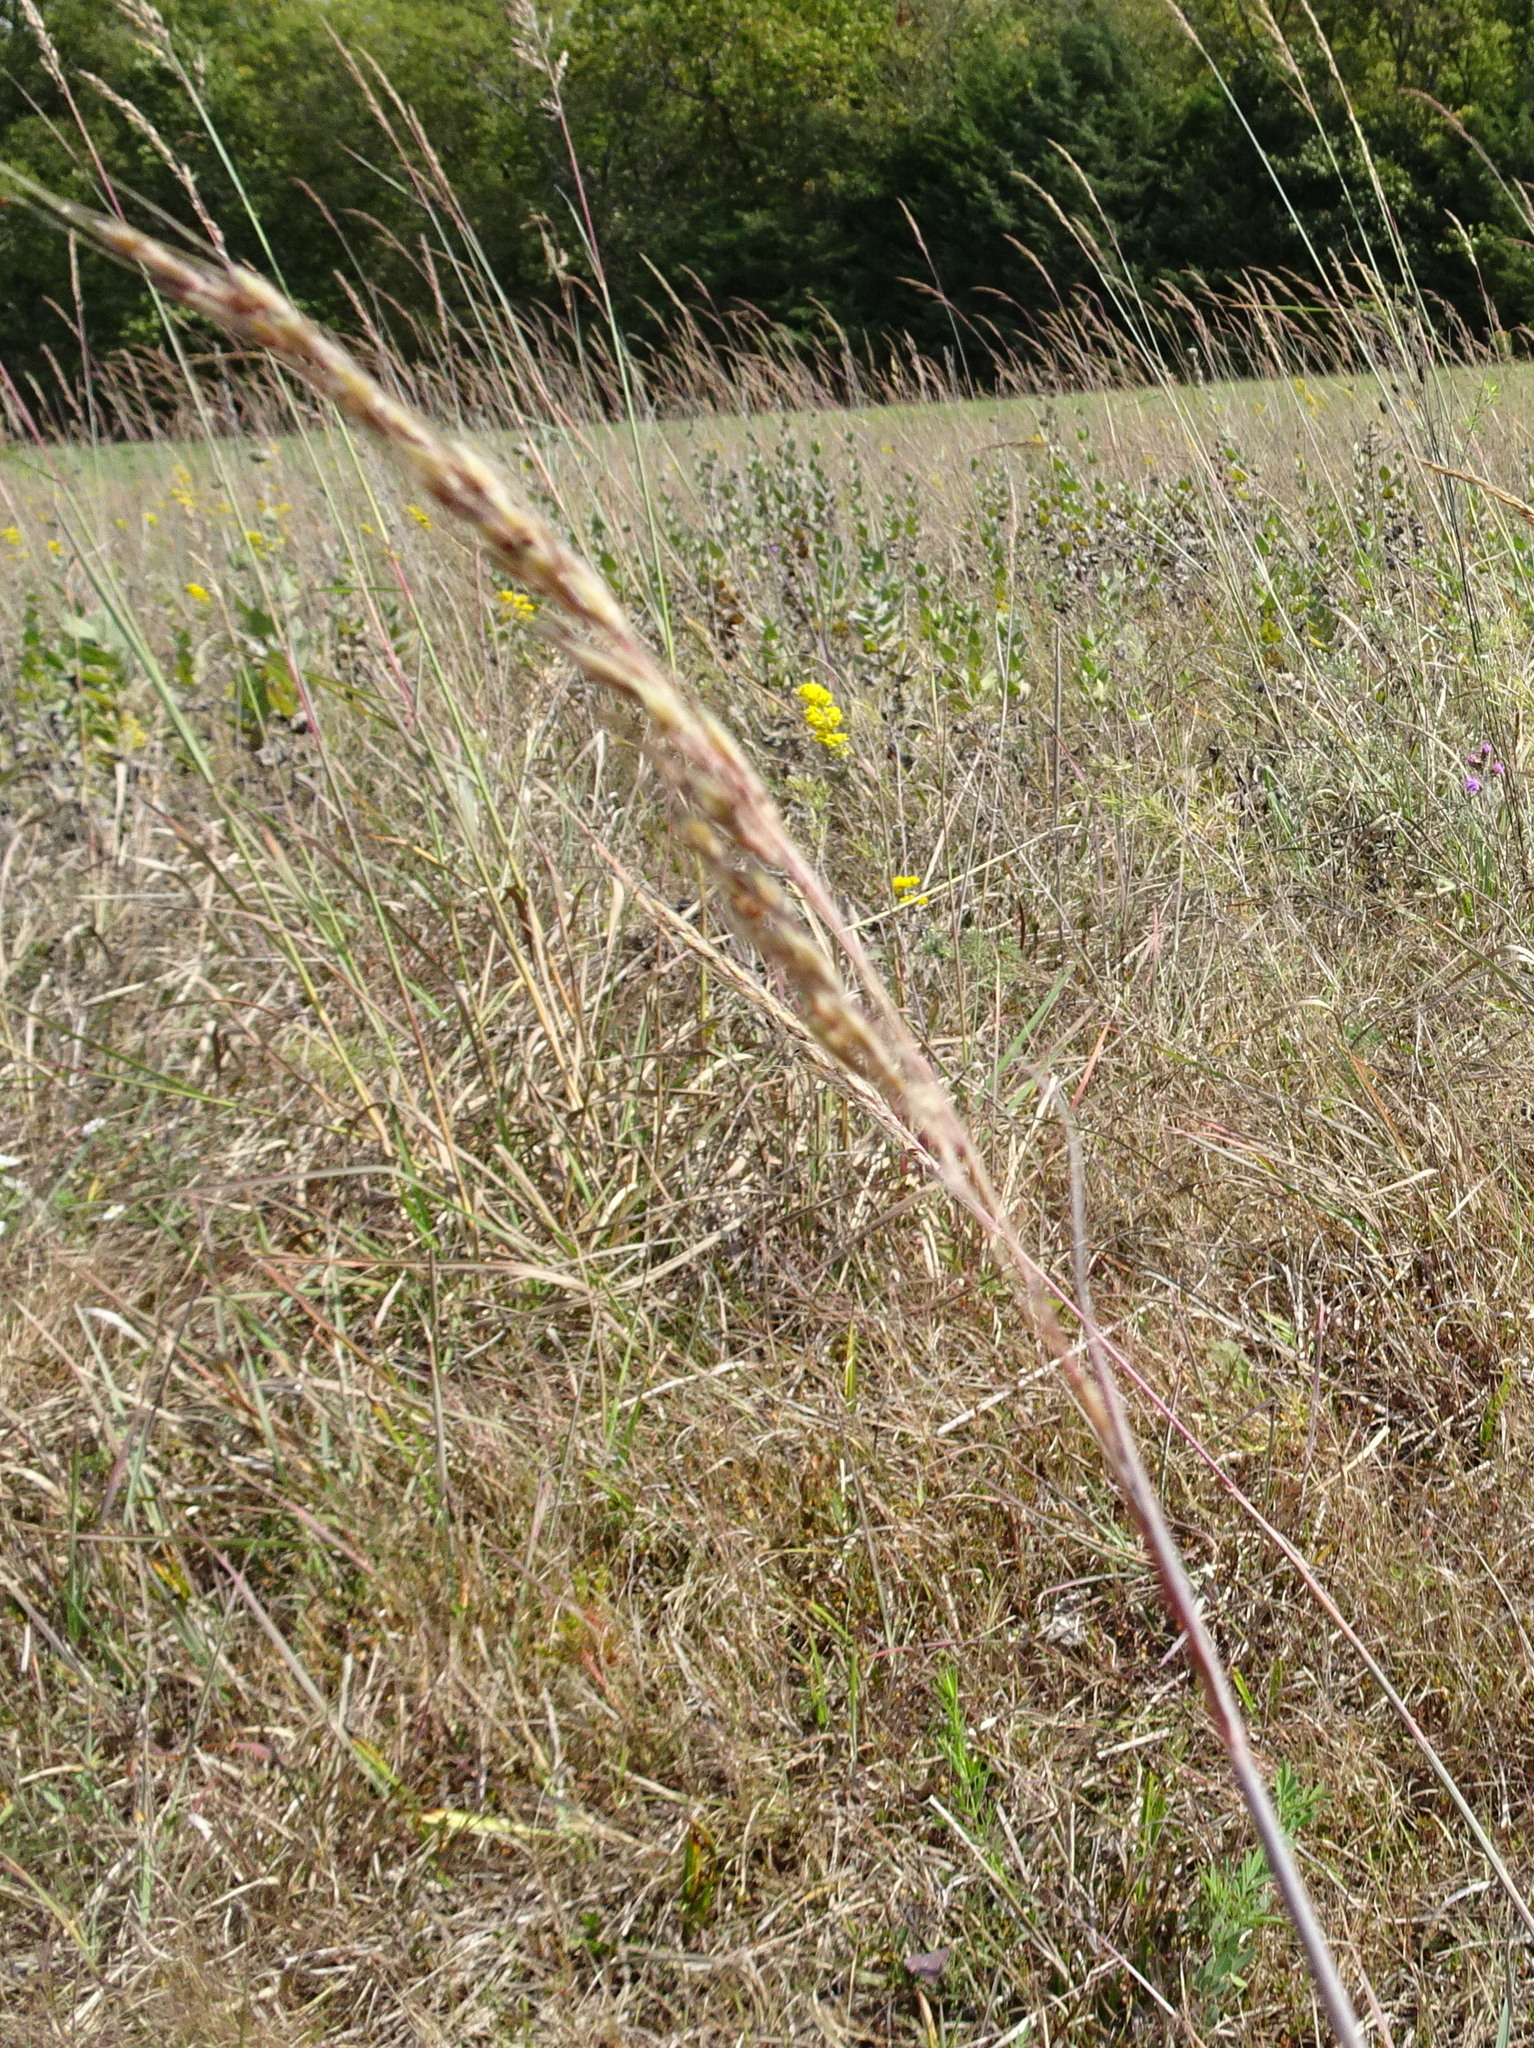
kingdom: Plantae
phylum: Tracheophyta
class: Liliopsida
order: Poales
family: Poaceae
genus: Sorghastrum
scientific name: Sorghastrum nutans
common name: Indian grass
